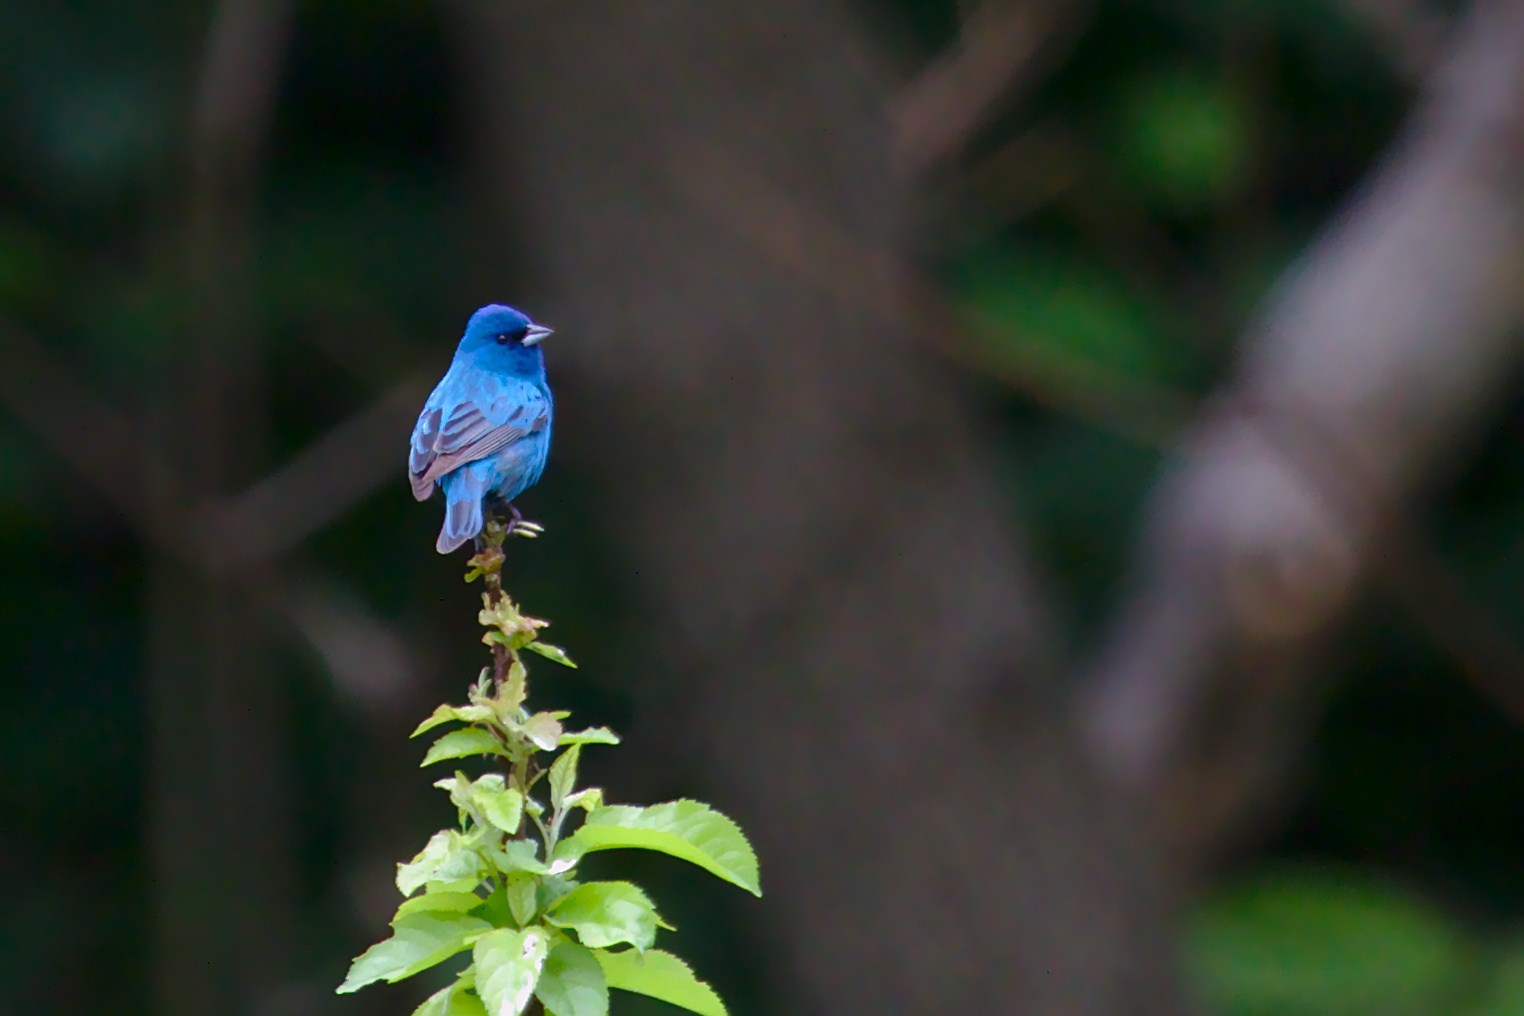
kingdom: Animalia
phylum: Chordata
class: Aves
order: Passeriformes
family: Cardinalidae
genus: Passerina
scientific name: Passerina cyanea
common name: Indigo bunting
